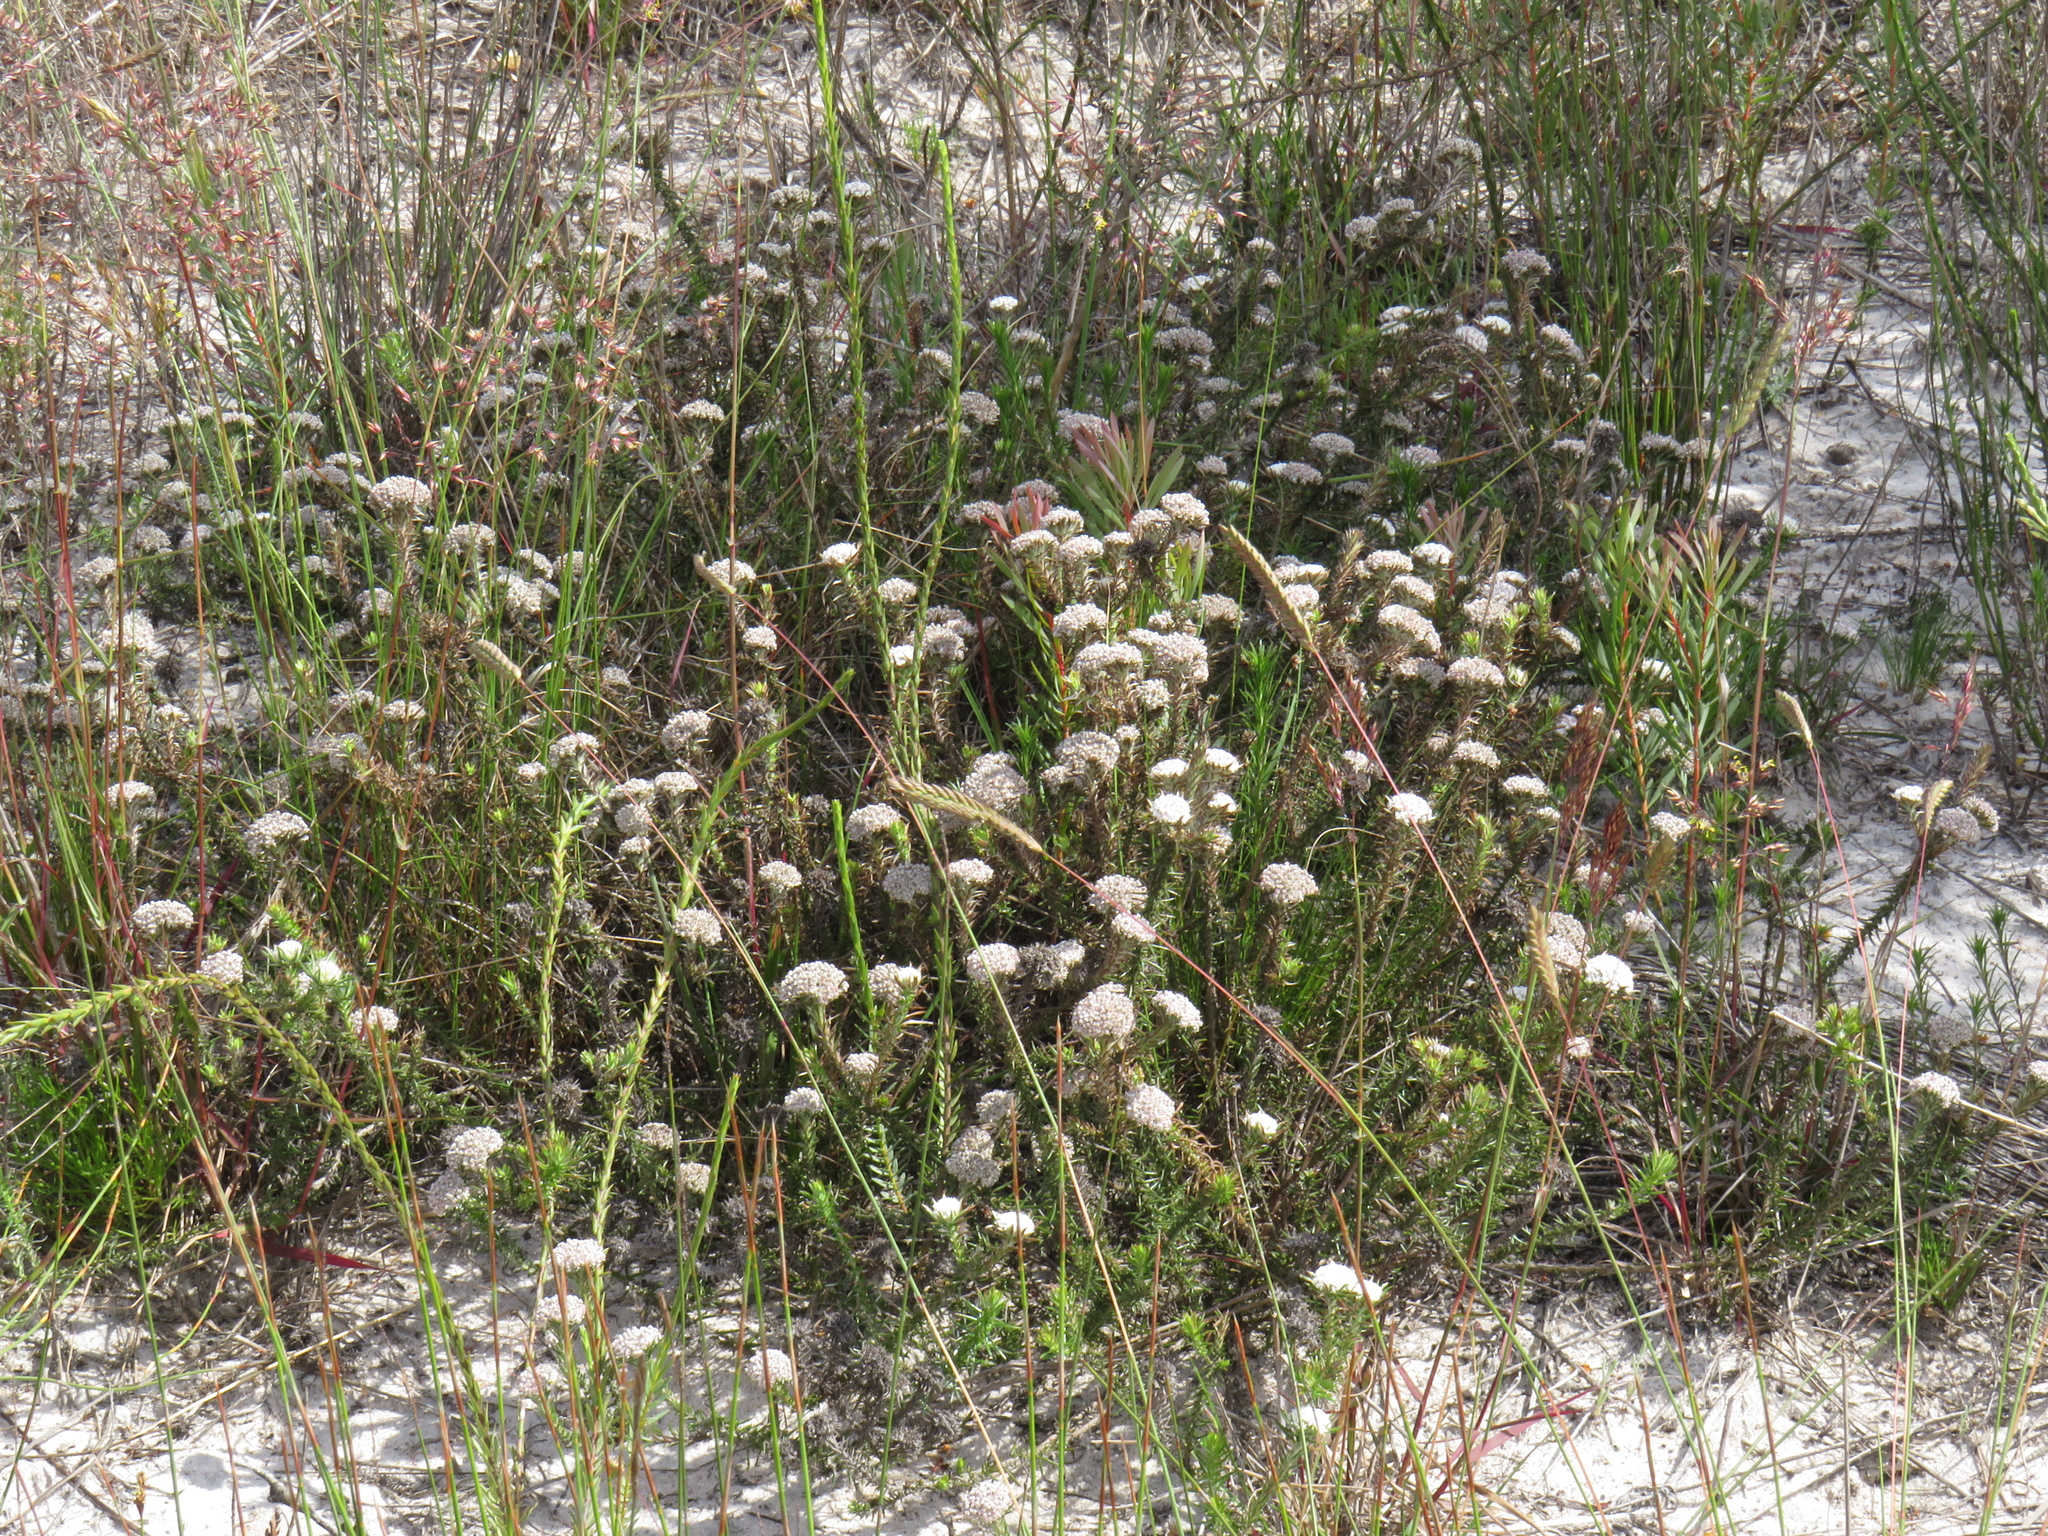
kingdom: Plantae
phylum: Tracheophyta
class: Magnoliopsida
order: Asterales
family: Asteraceae
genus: Metalasia
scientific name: Metalasia capitata
